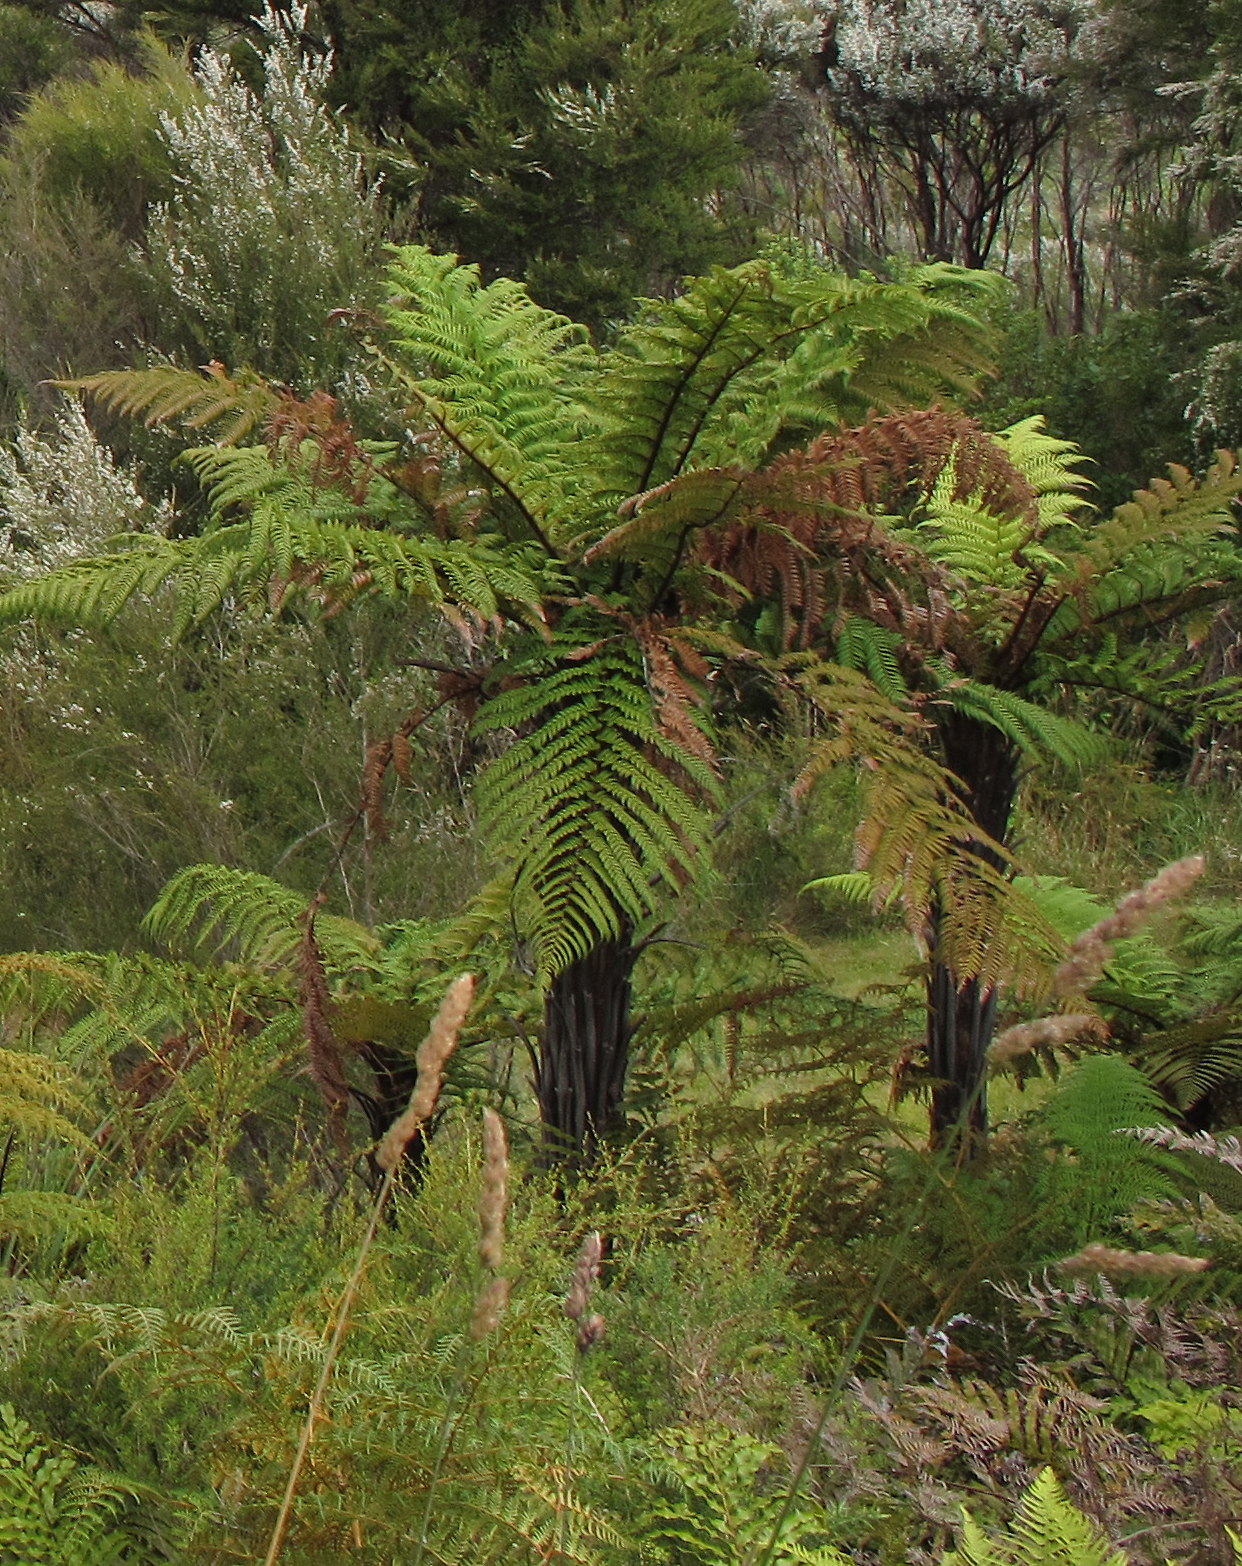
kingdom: Plantae
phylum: Tracheophyta
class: Polypodiopsida
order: Cyatheales
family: Dicksoniaceae
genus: Dicksonia
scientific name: Dicksonia squarrosa
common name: Hard treefern
